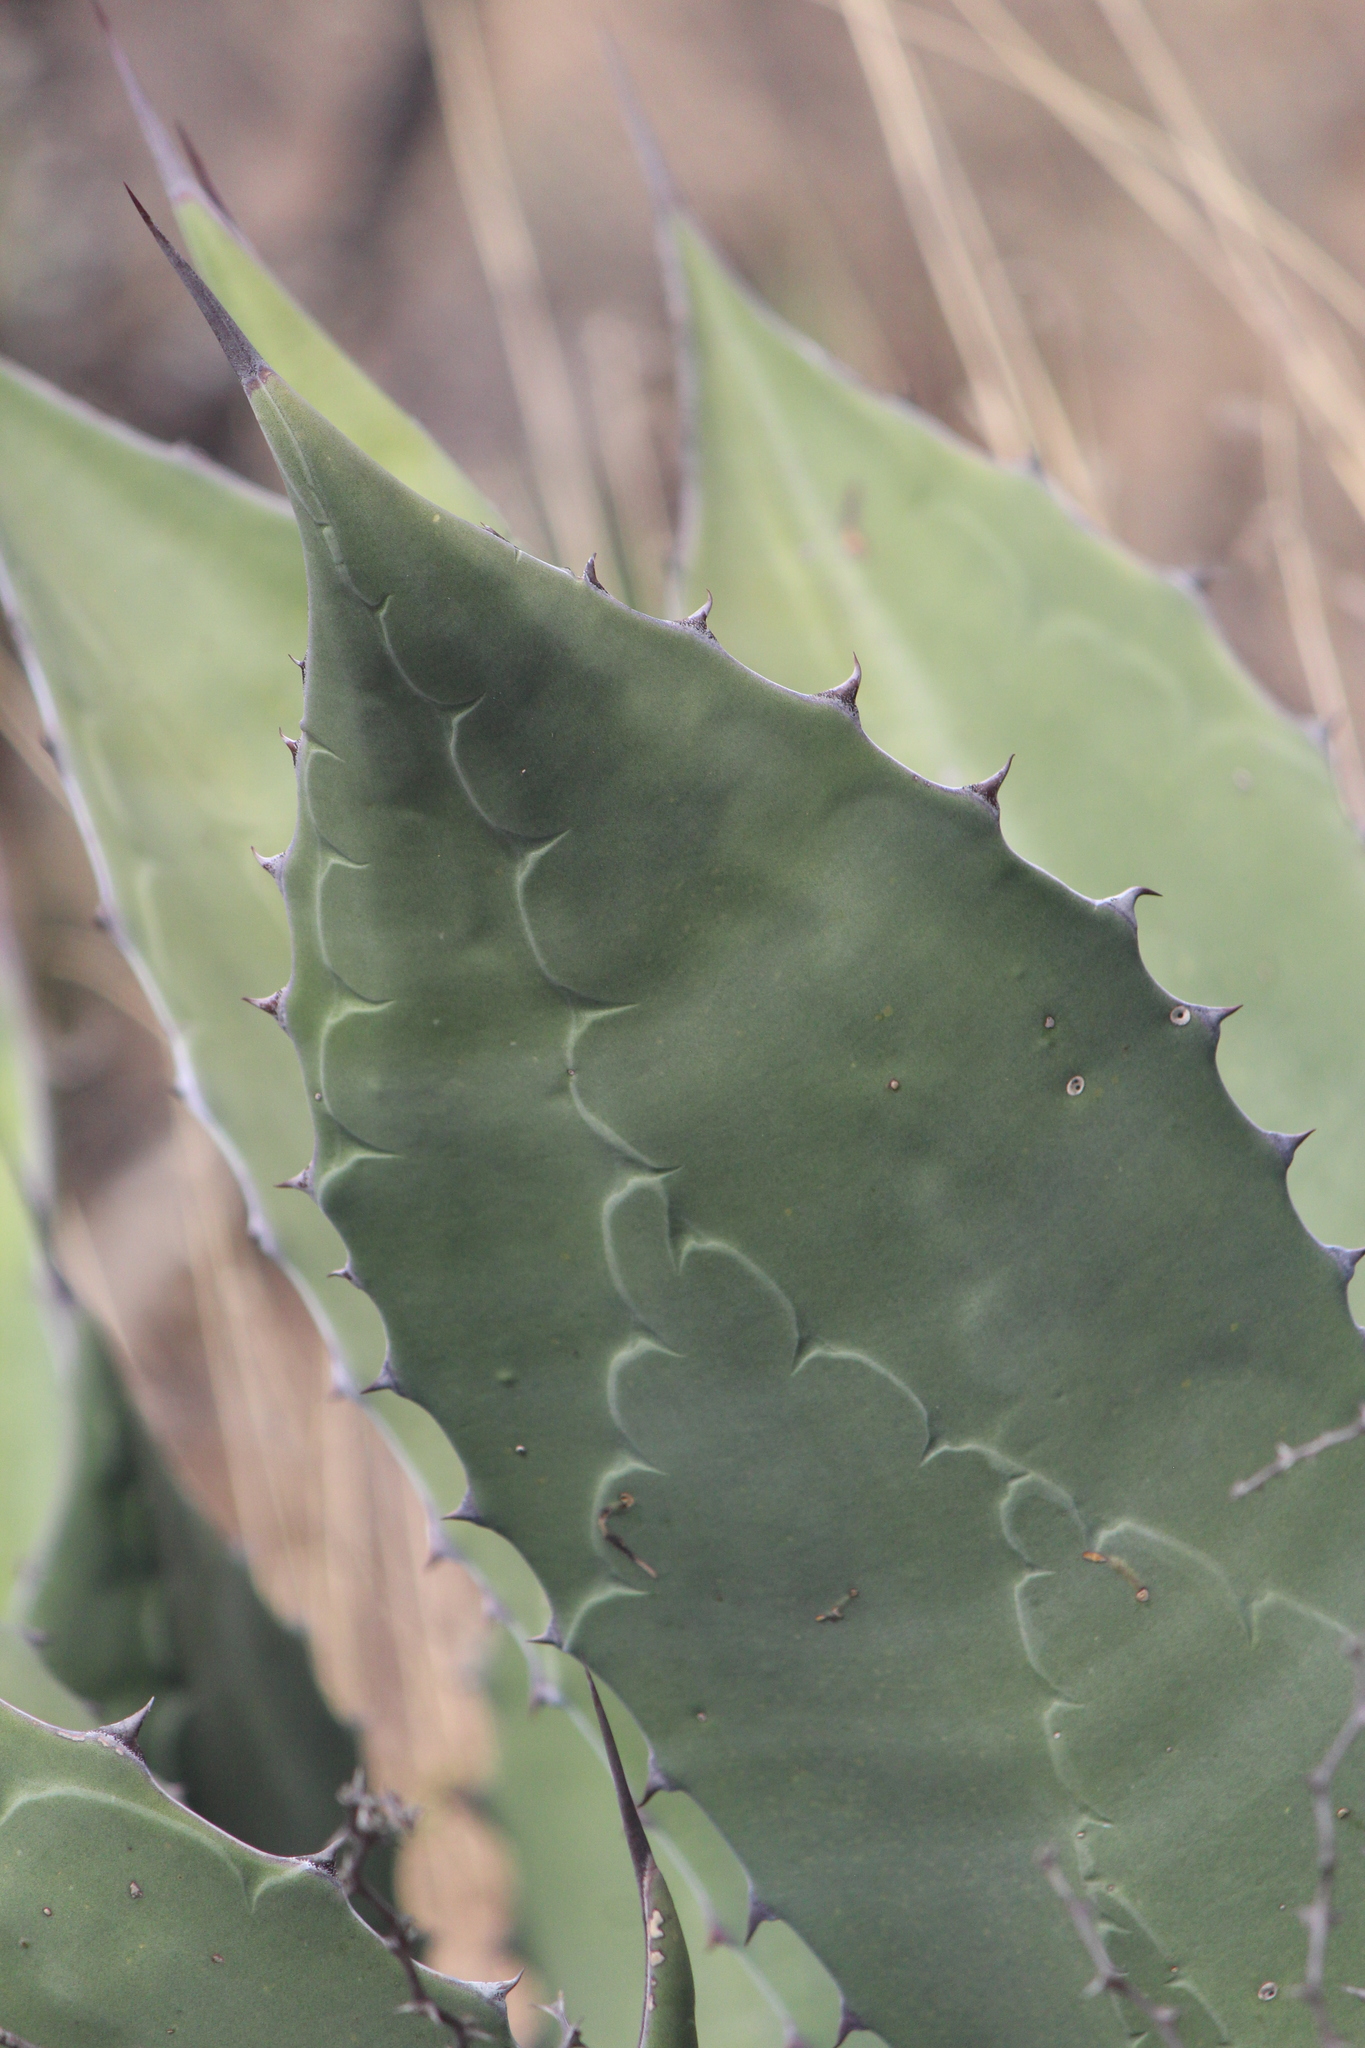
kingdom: Plantae
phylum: Tracheophyta
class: Liliopsida
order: Asparagales
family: Asparagaceae
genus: Agave
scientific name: Agave salmiana
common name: Pulque agave
